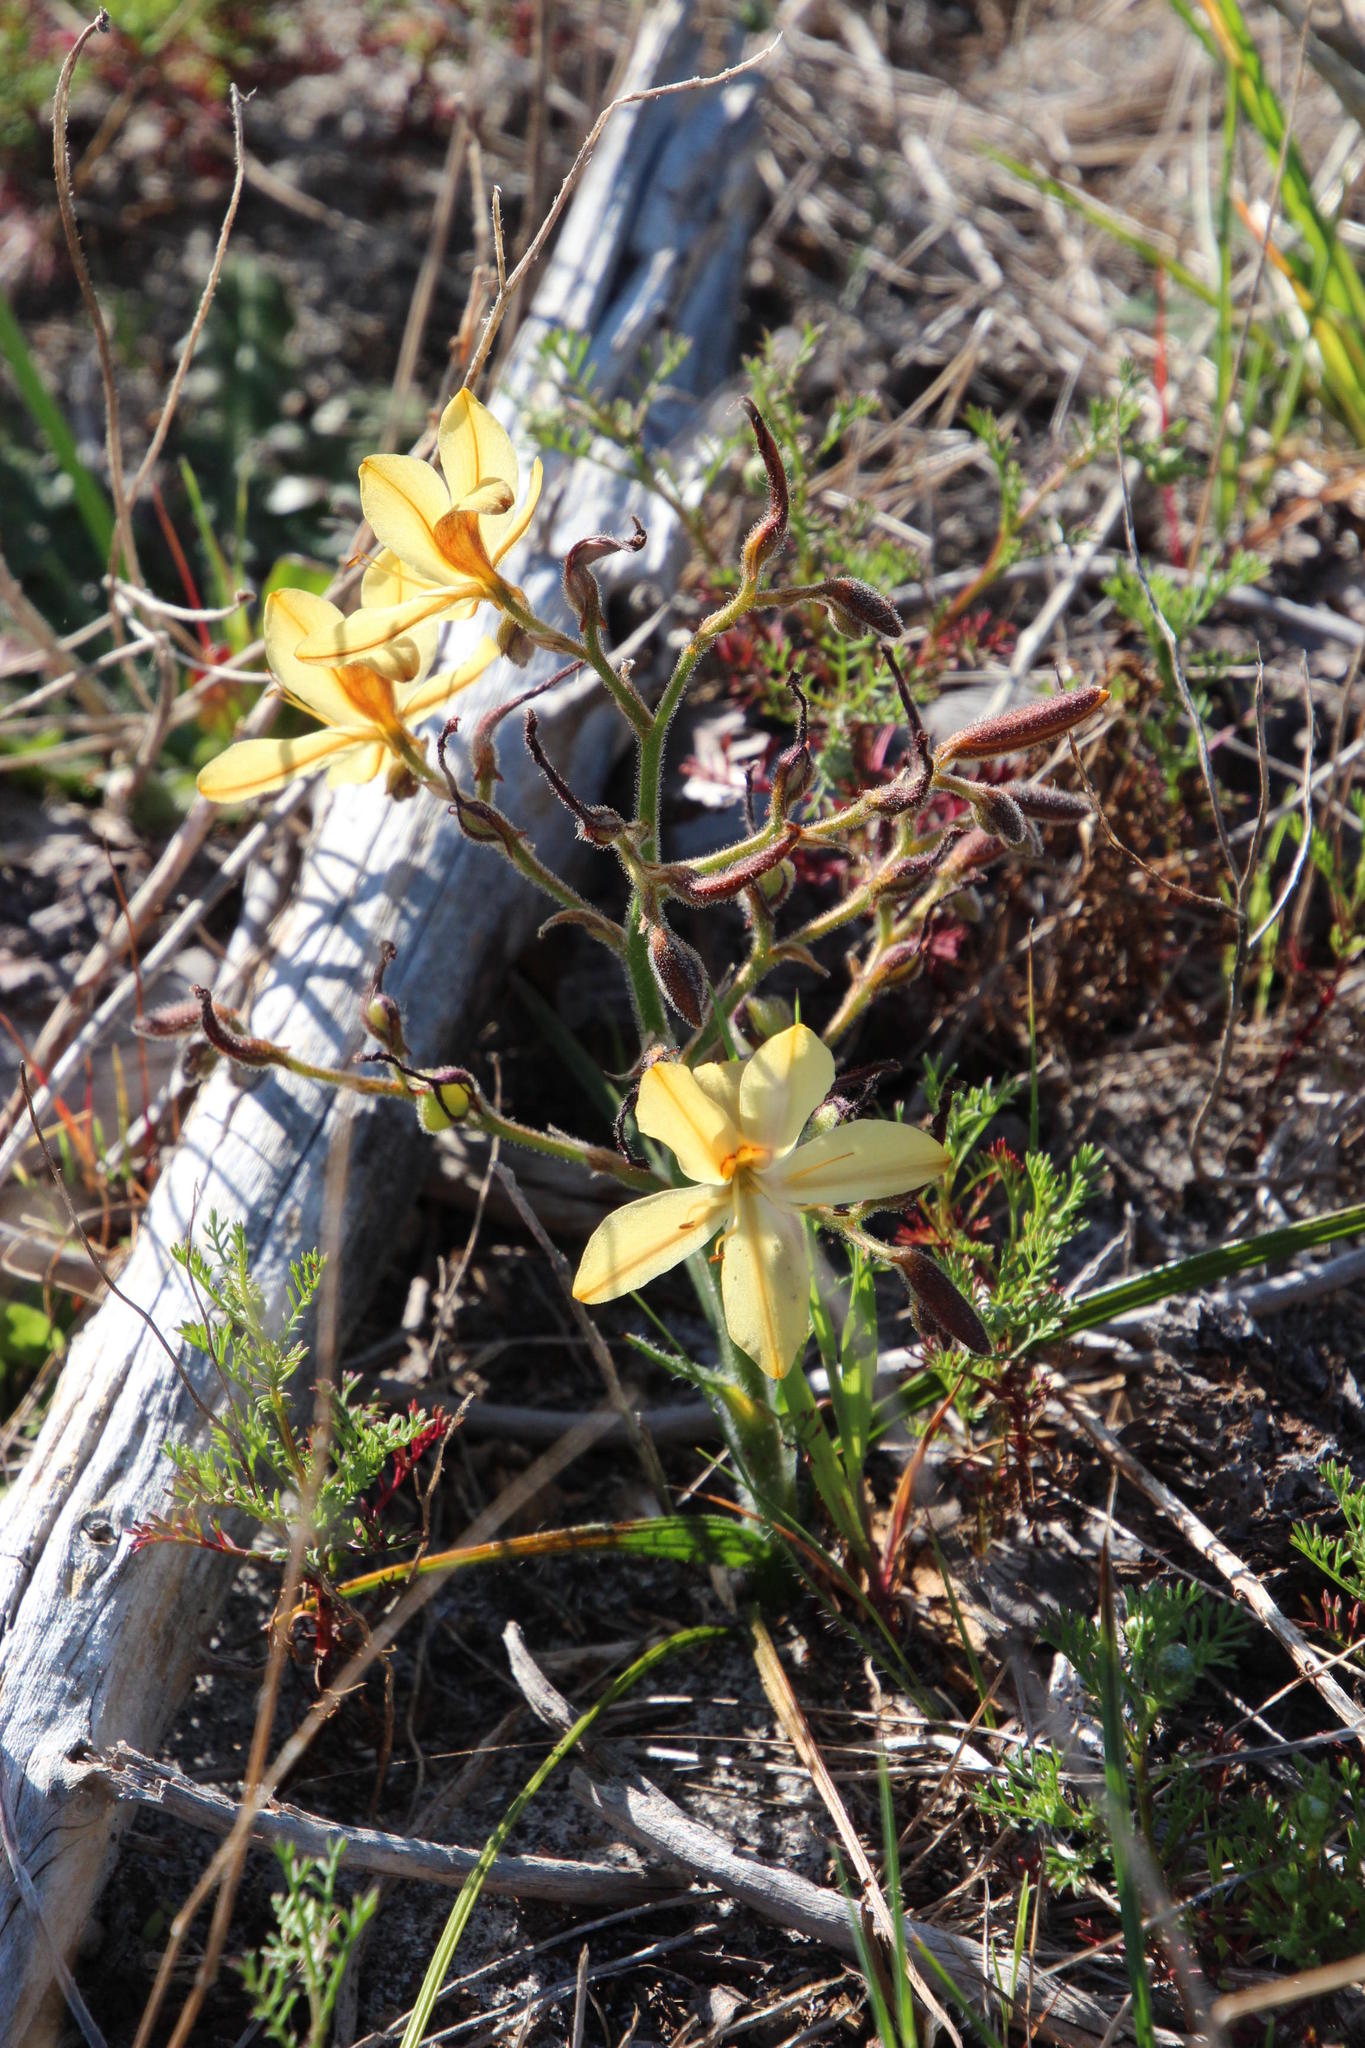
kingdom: Plantae
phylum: Tracheophyta
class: Liliopsida
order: Commelinales
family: Haemodoraceae
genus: Wachendorfia
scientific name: Wachendorfia paniculata
